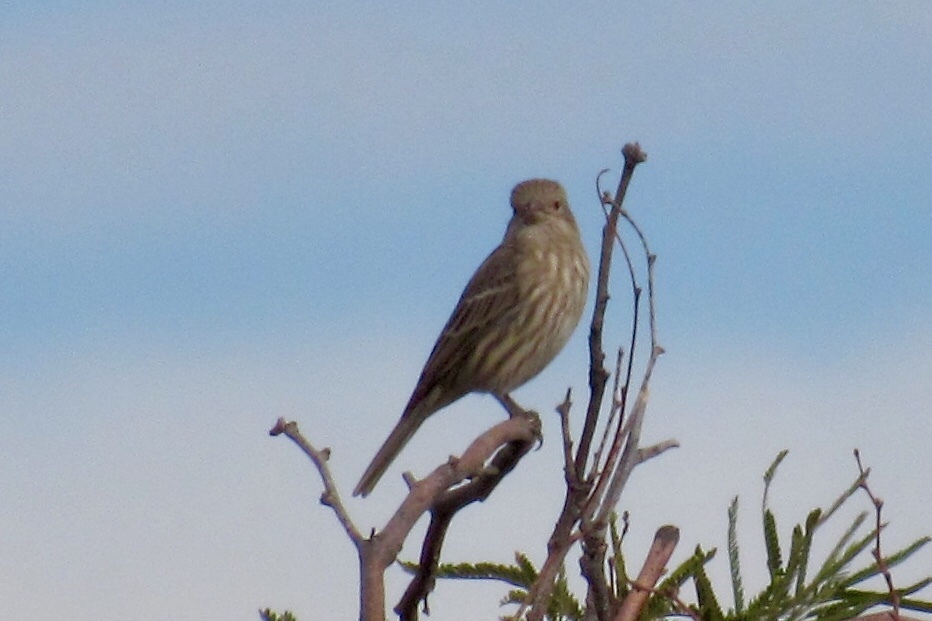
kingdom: Animalia
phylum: Chordata
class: Aves
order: Passeriformes
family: Fringillidae
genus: Haemorhous
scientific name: Haemorhous mexicanus
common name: House finch
